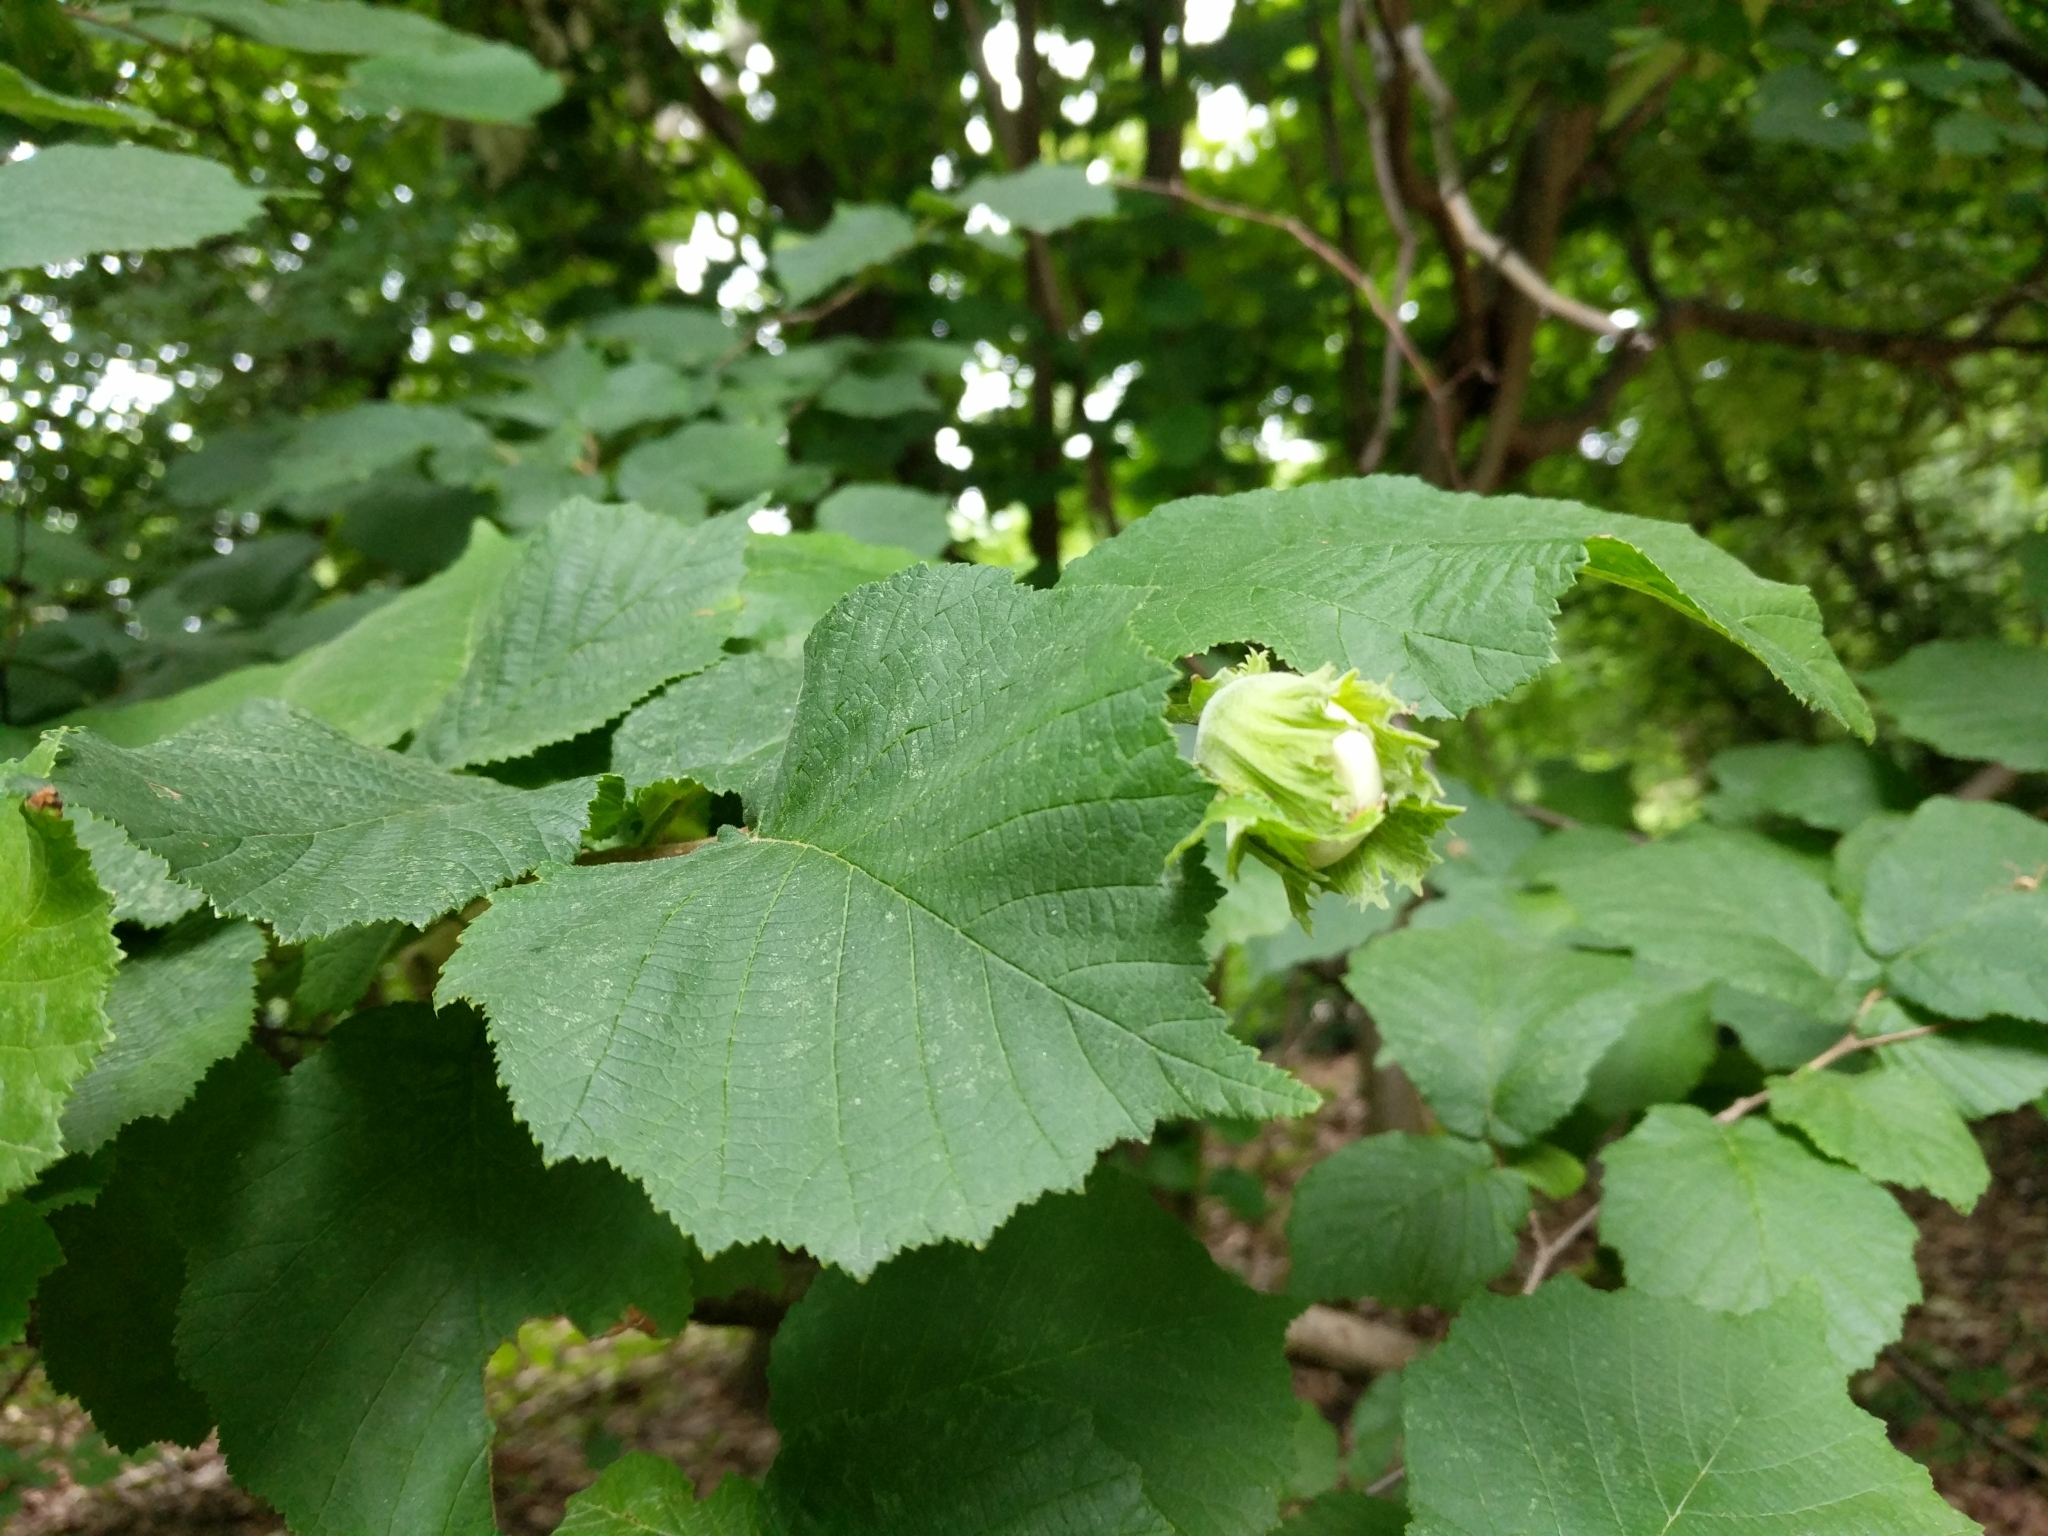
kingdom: Plantae
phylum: Tracheophyta
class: Magnoliopsida
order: Fagales
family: Betulaceae
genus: Corylus
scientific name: Corylus avellana
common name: European hazel
